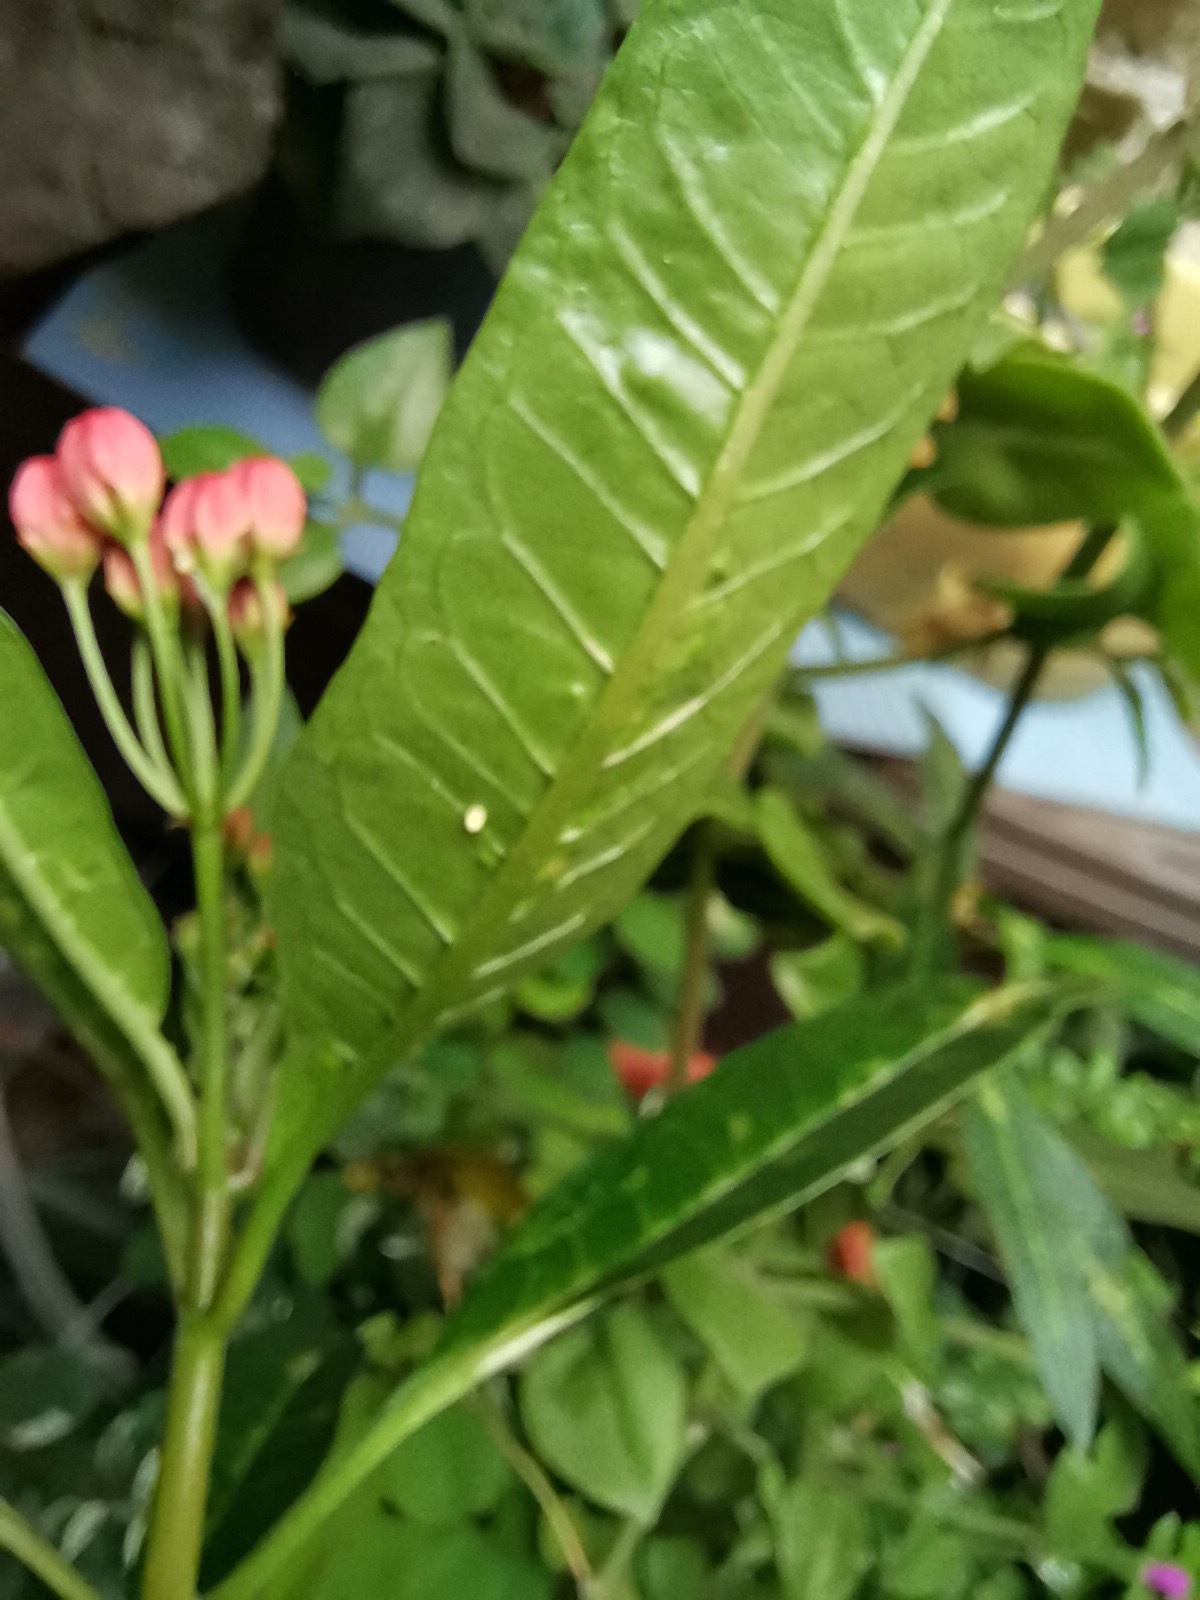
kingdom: Animalia
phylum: Arthropoda
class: Insecta
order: Lepidoptera
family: Nymphalidae
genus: Danaus
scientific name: Danaus plexippus
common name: Monarch
